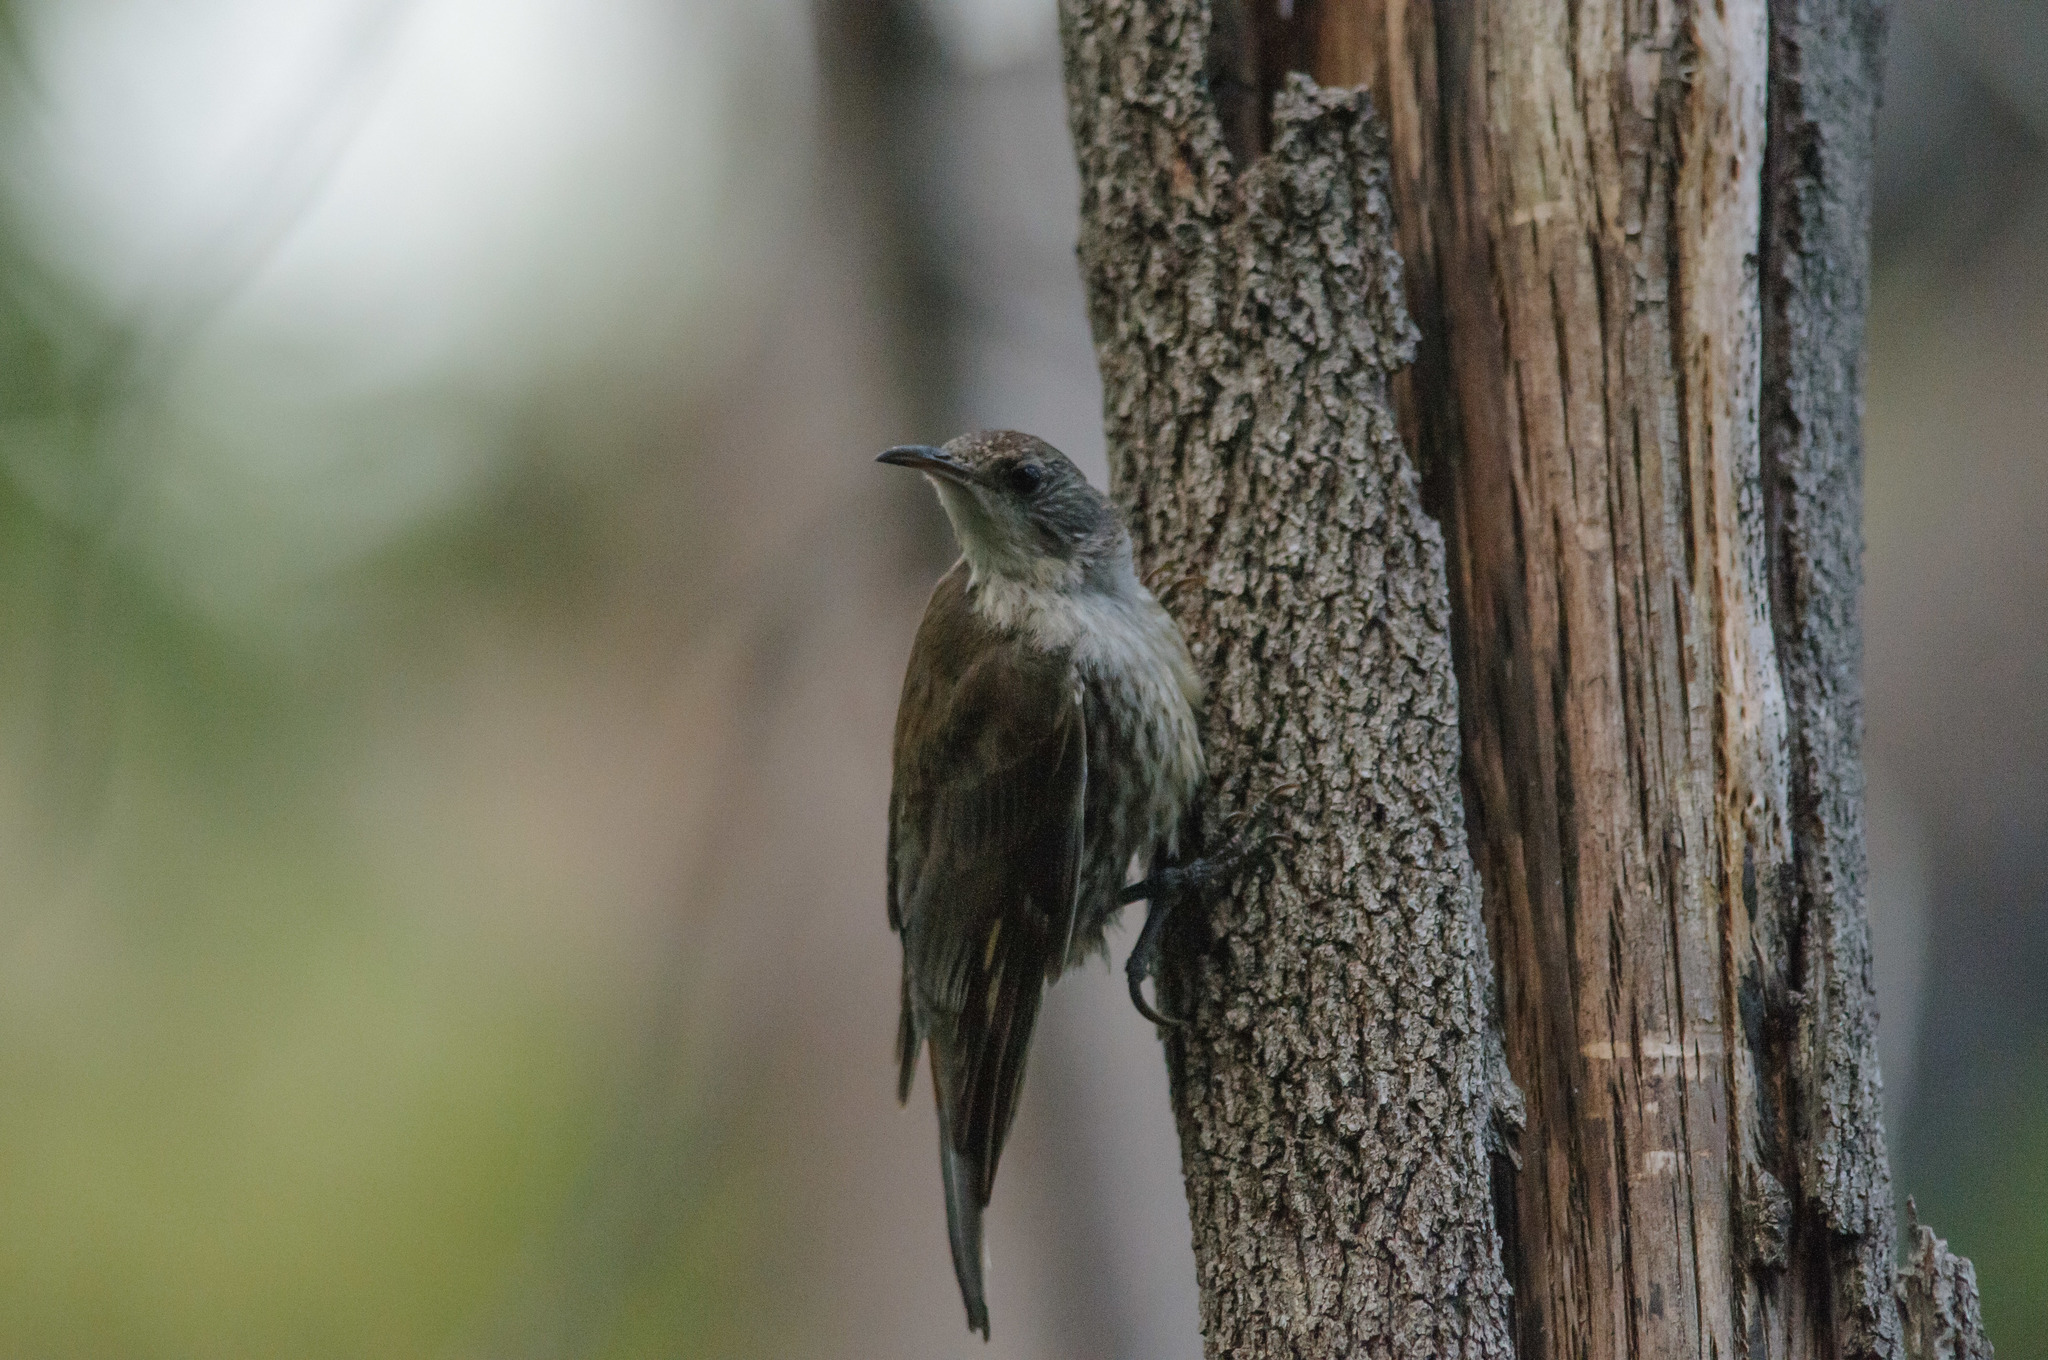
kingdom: Animalia
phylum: Chordata
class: Aves
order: Passeriformes
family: Climacteridae
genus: Cormobates
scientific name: Cormobates leucophaea
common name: White-throated treecreeper
